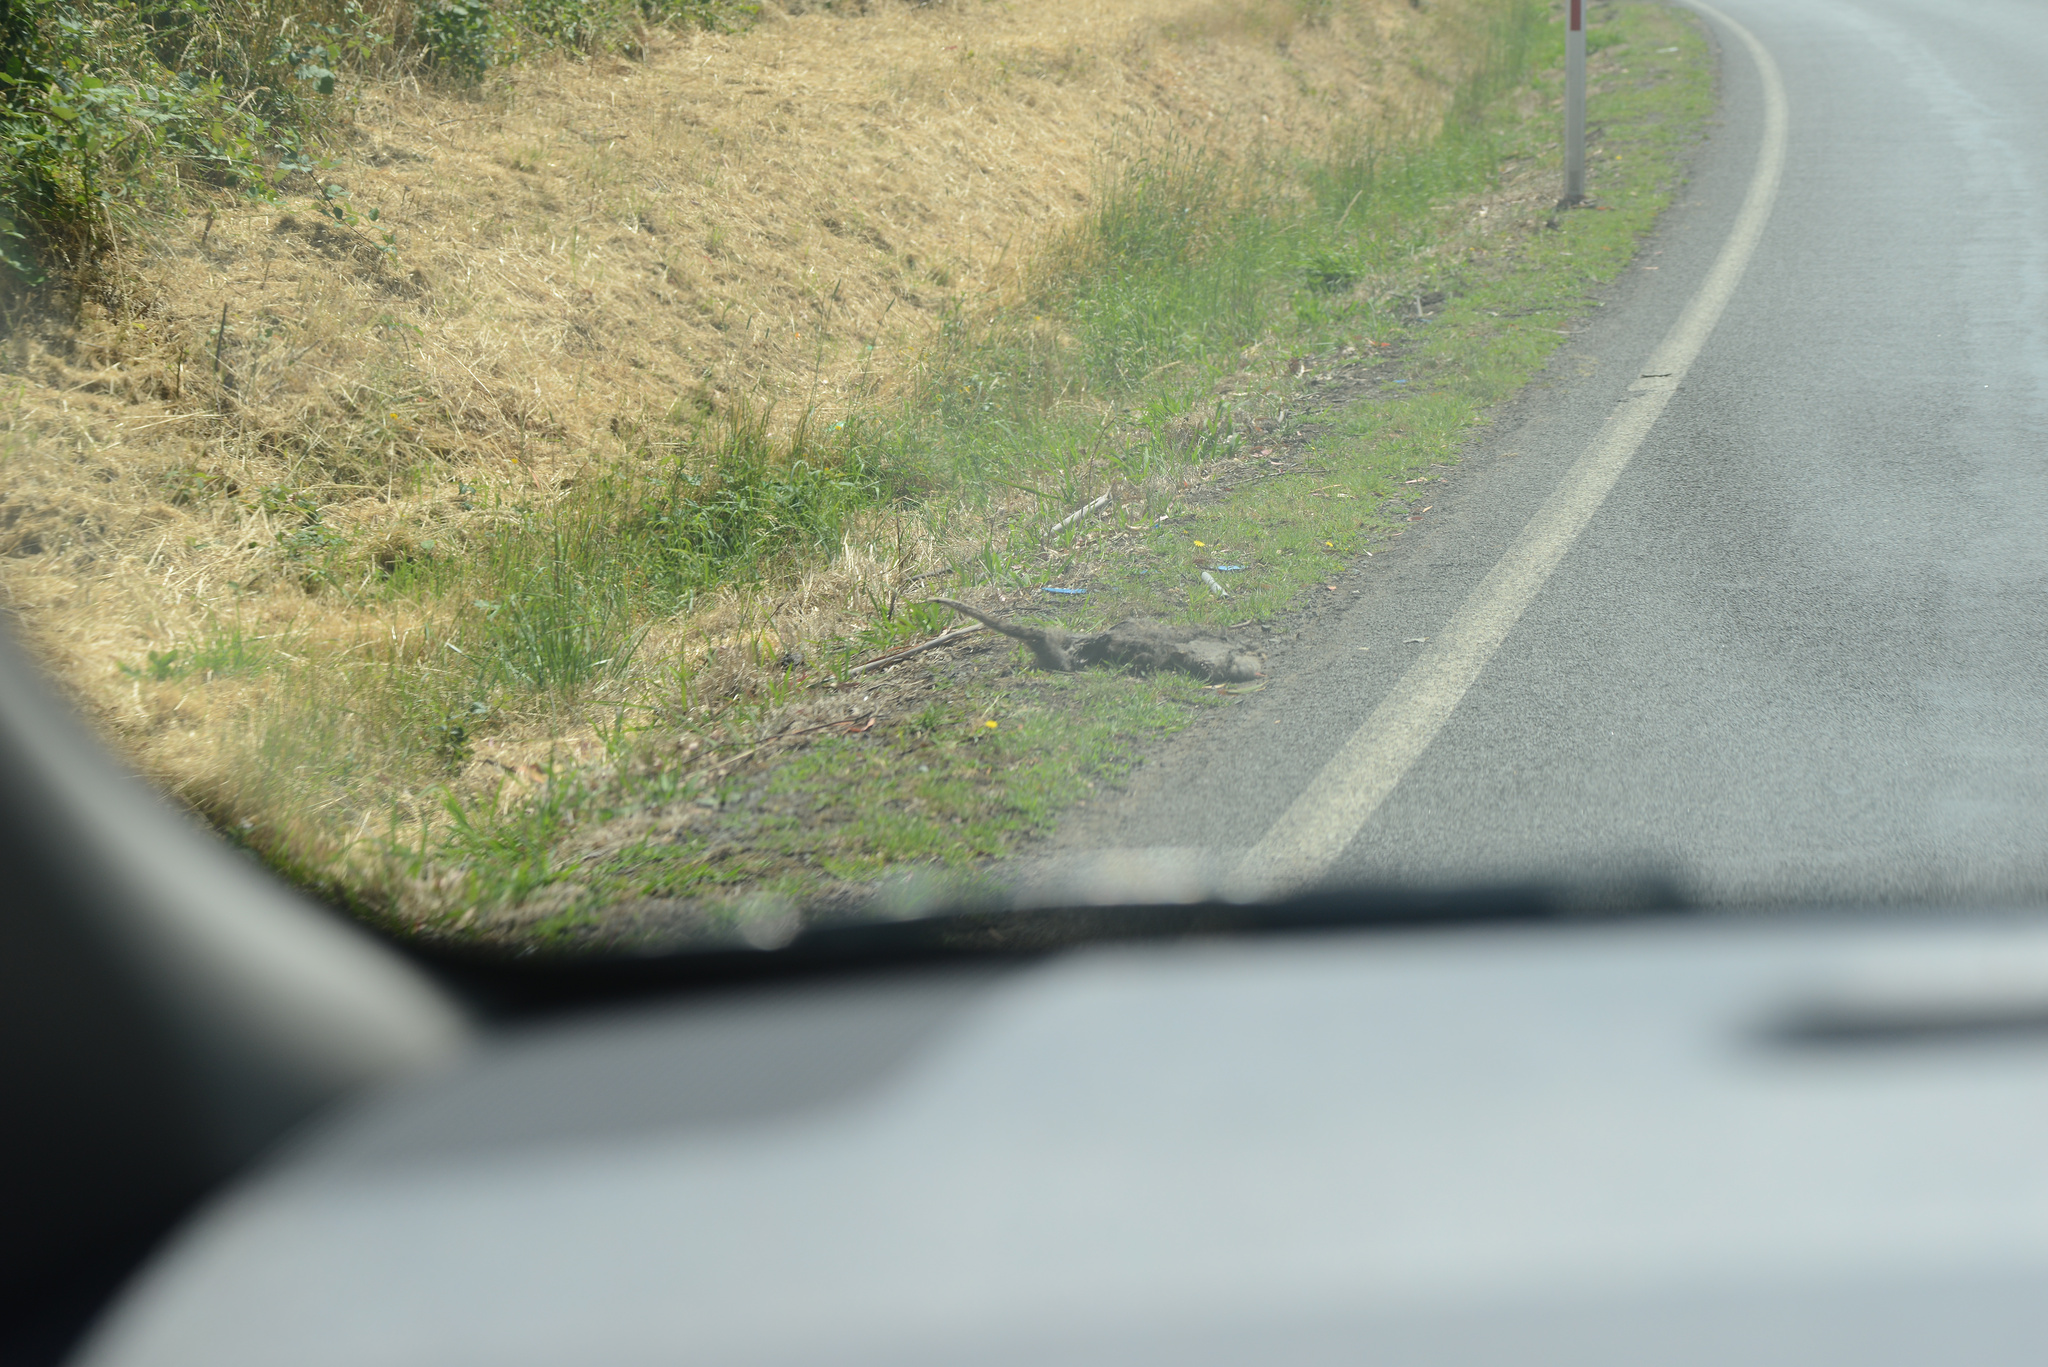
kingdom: Animalia
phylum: Chordata
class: Mammalia
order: Diprotodontia
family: Macropodidae
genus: Thylogale
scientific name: Thylogale billardierii
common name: Tasmanian pademelon
